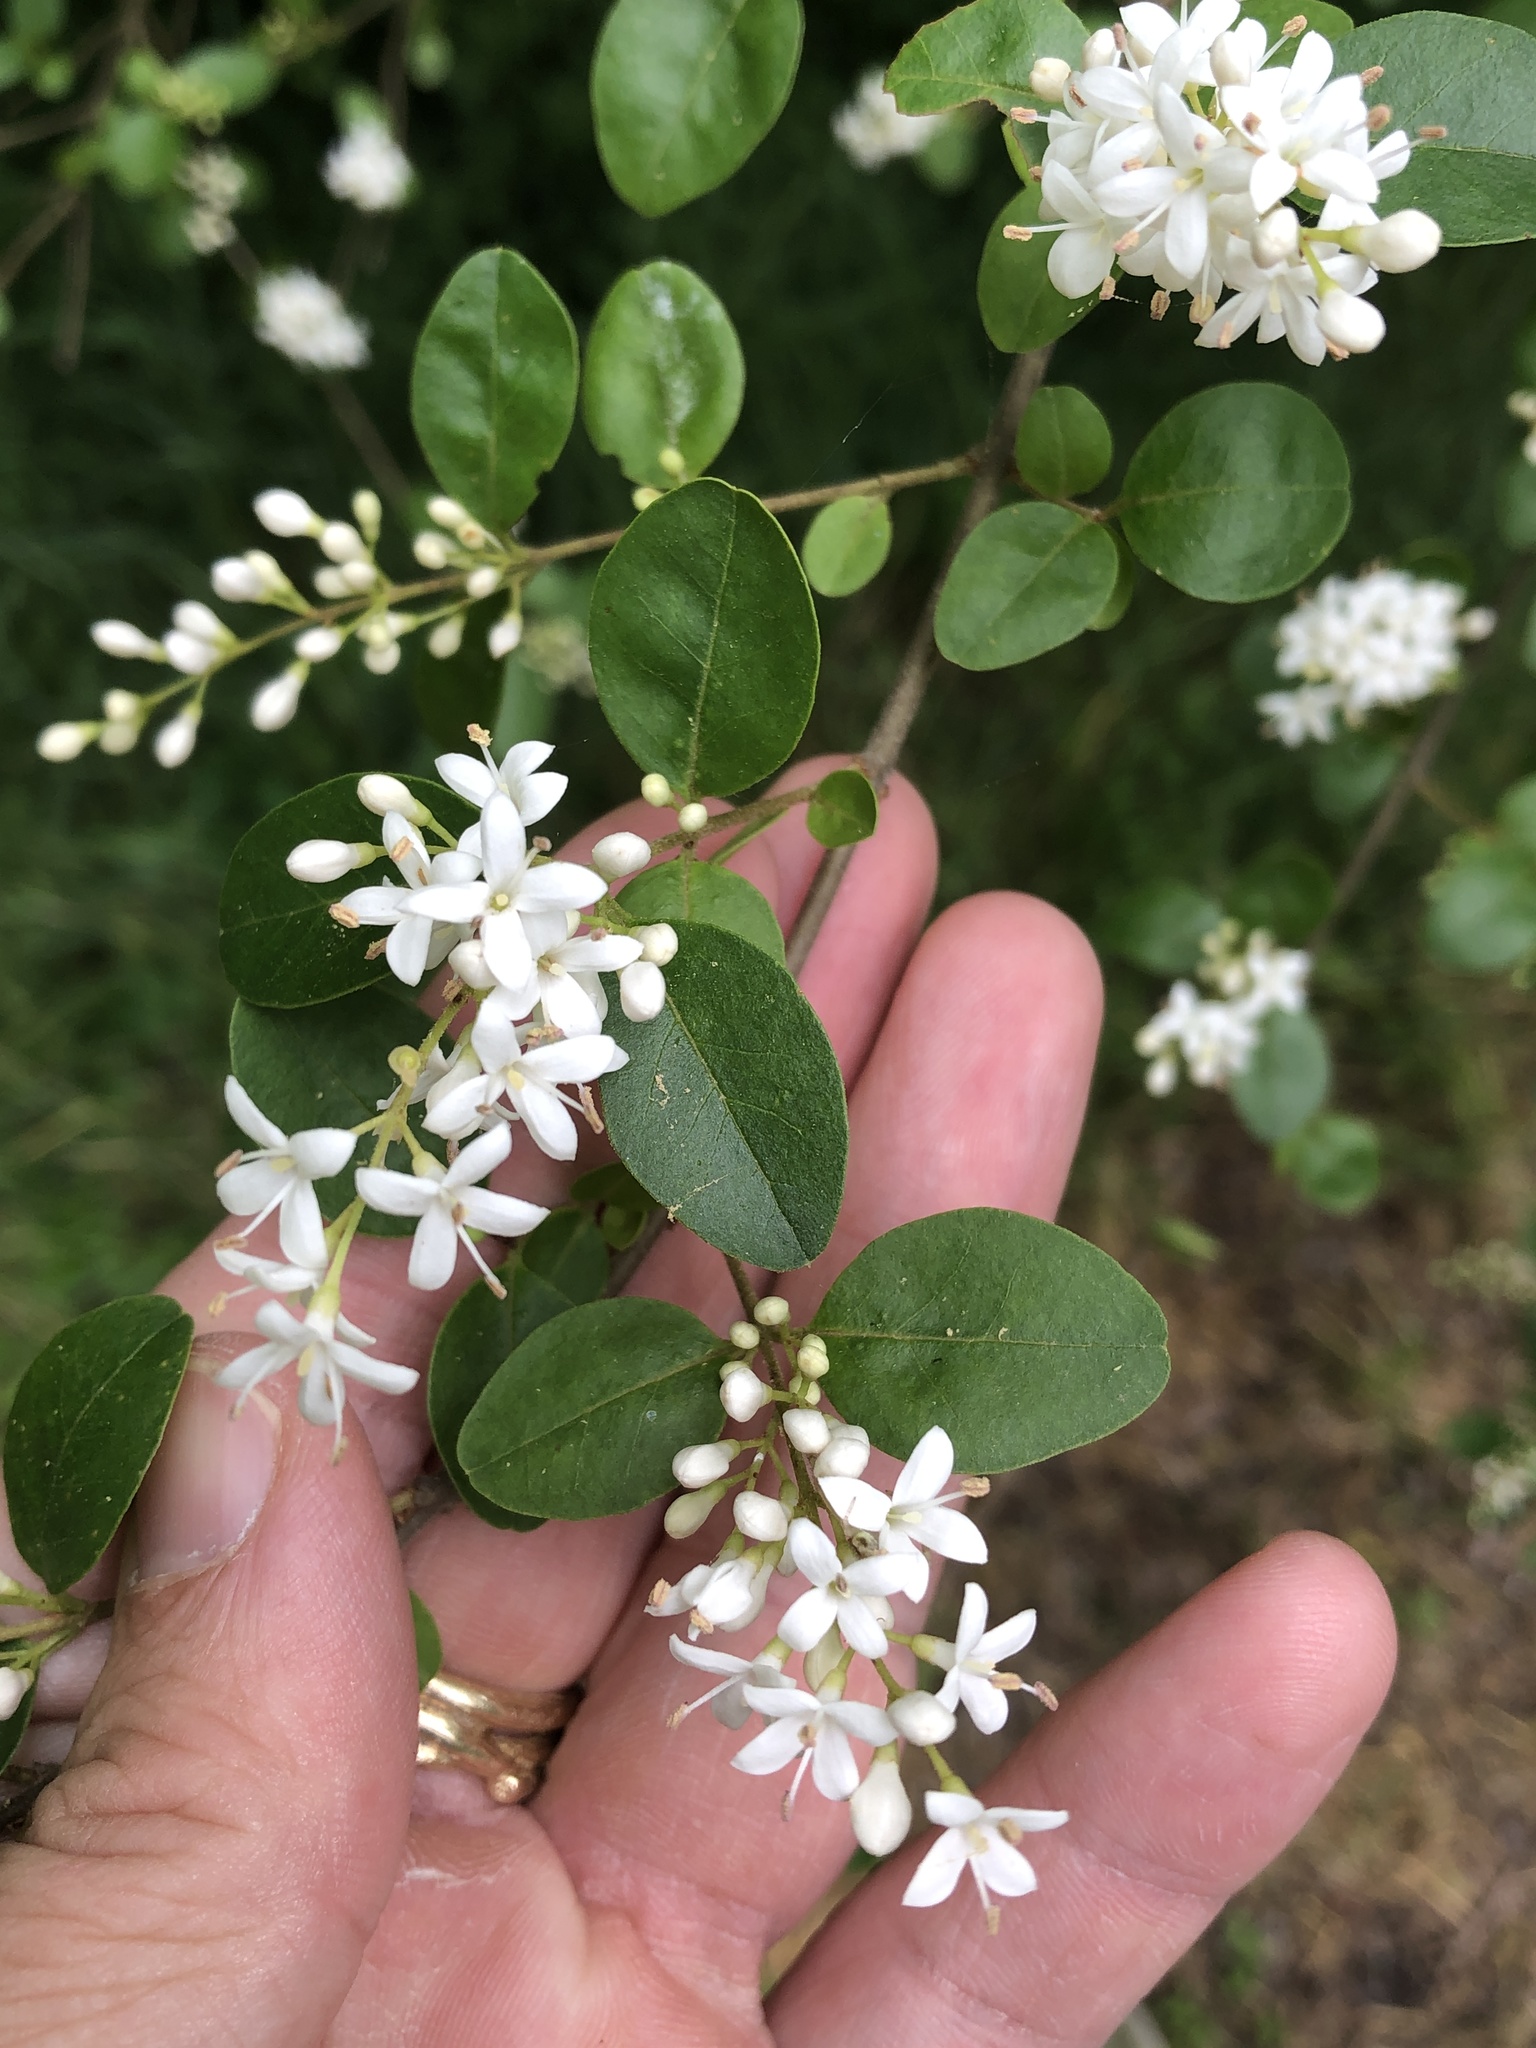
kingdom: Plantae
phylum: Tracheophyta
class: Magnoliopsida
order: Lamiales
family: Oleaceae
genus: Ligustrum
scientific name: Ligustrum sinense
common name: Chinese privet
